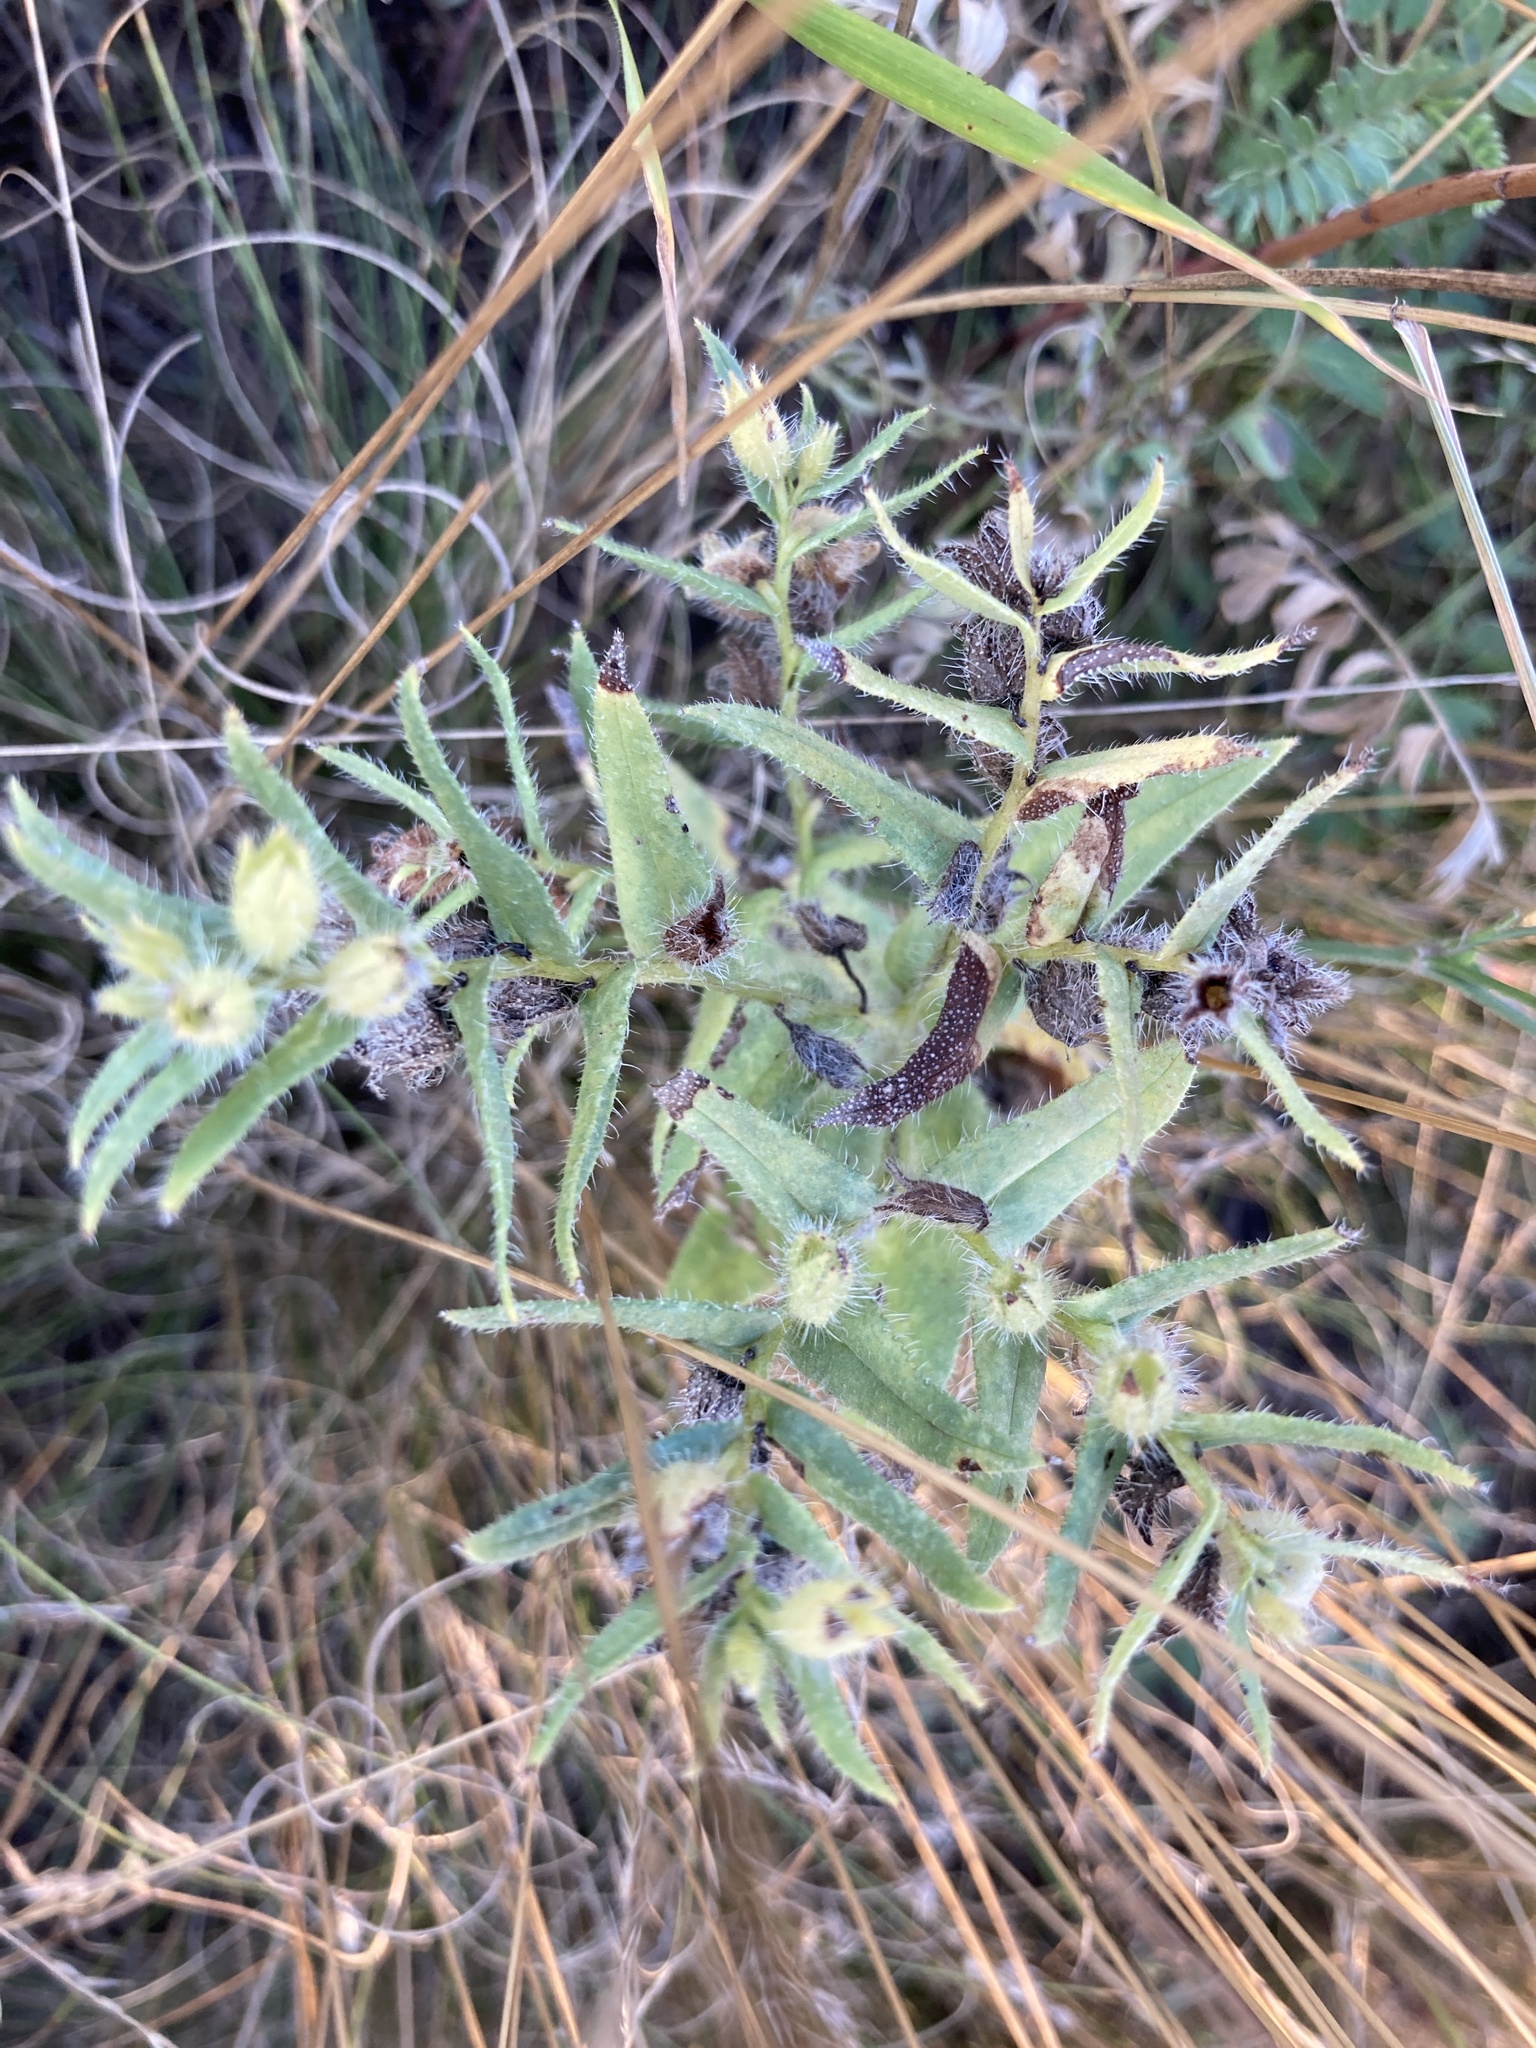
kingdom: Plantae
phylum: Tracheophyta
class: Magnoliopsida
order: Boraginales
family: Boraginaceae
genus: Nonea
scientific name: Nonea pulla
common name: Brown nonea
